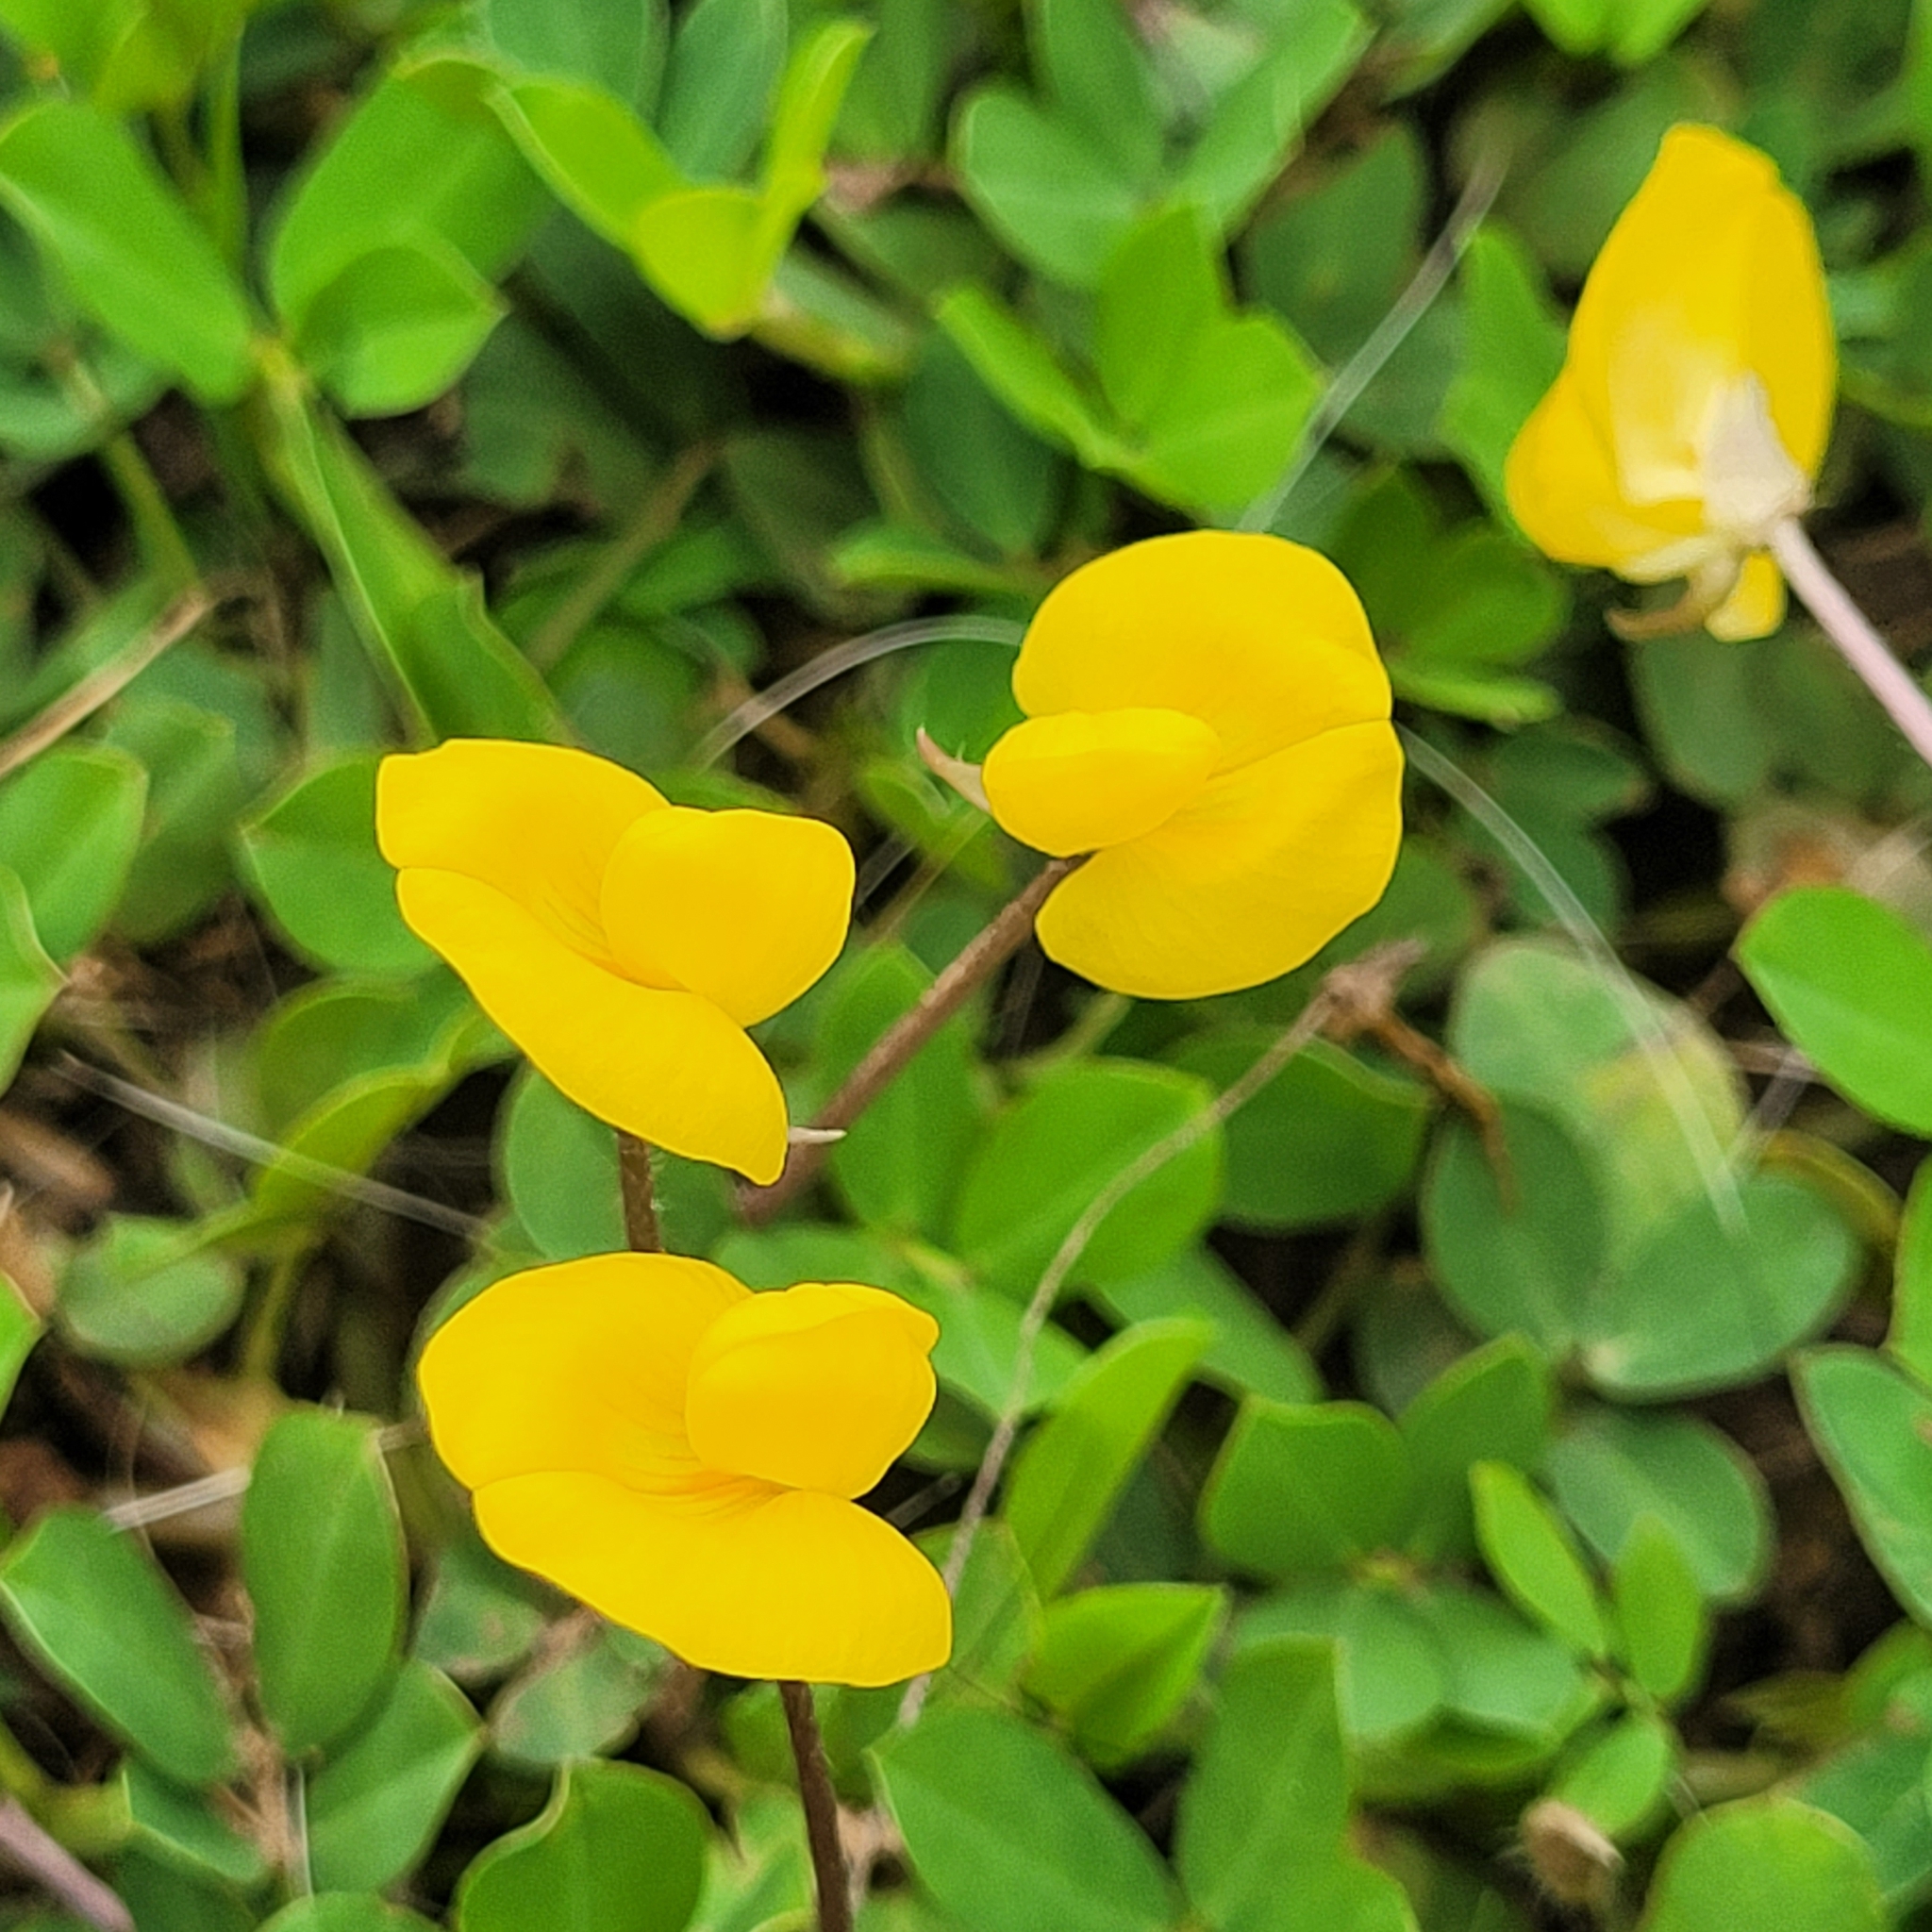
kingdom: Plantae
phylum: Tracheophyta
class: Magnoliopsida
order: Fabales
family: Fabaceae
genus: Arachis
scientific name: Arachis pintoi
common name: Pinto peanut
